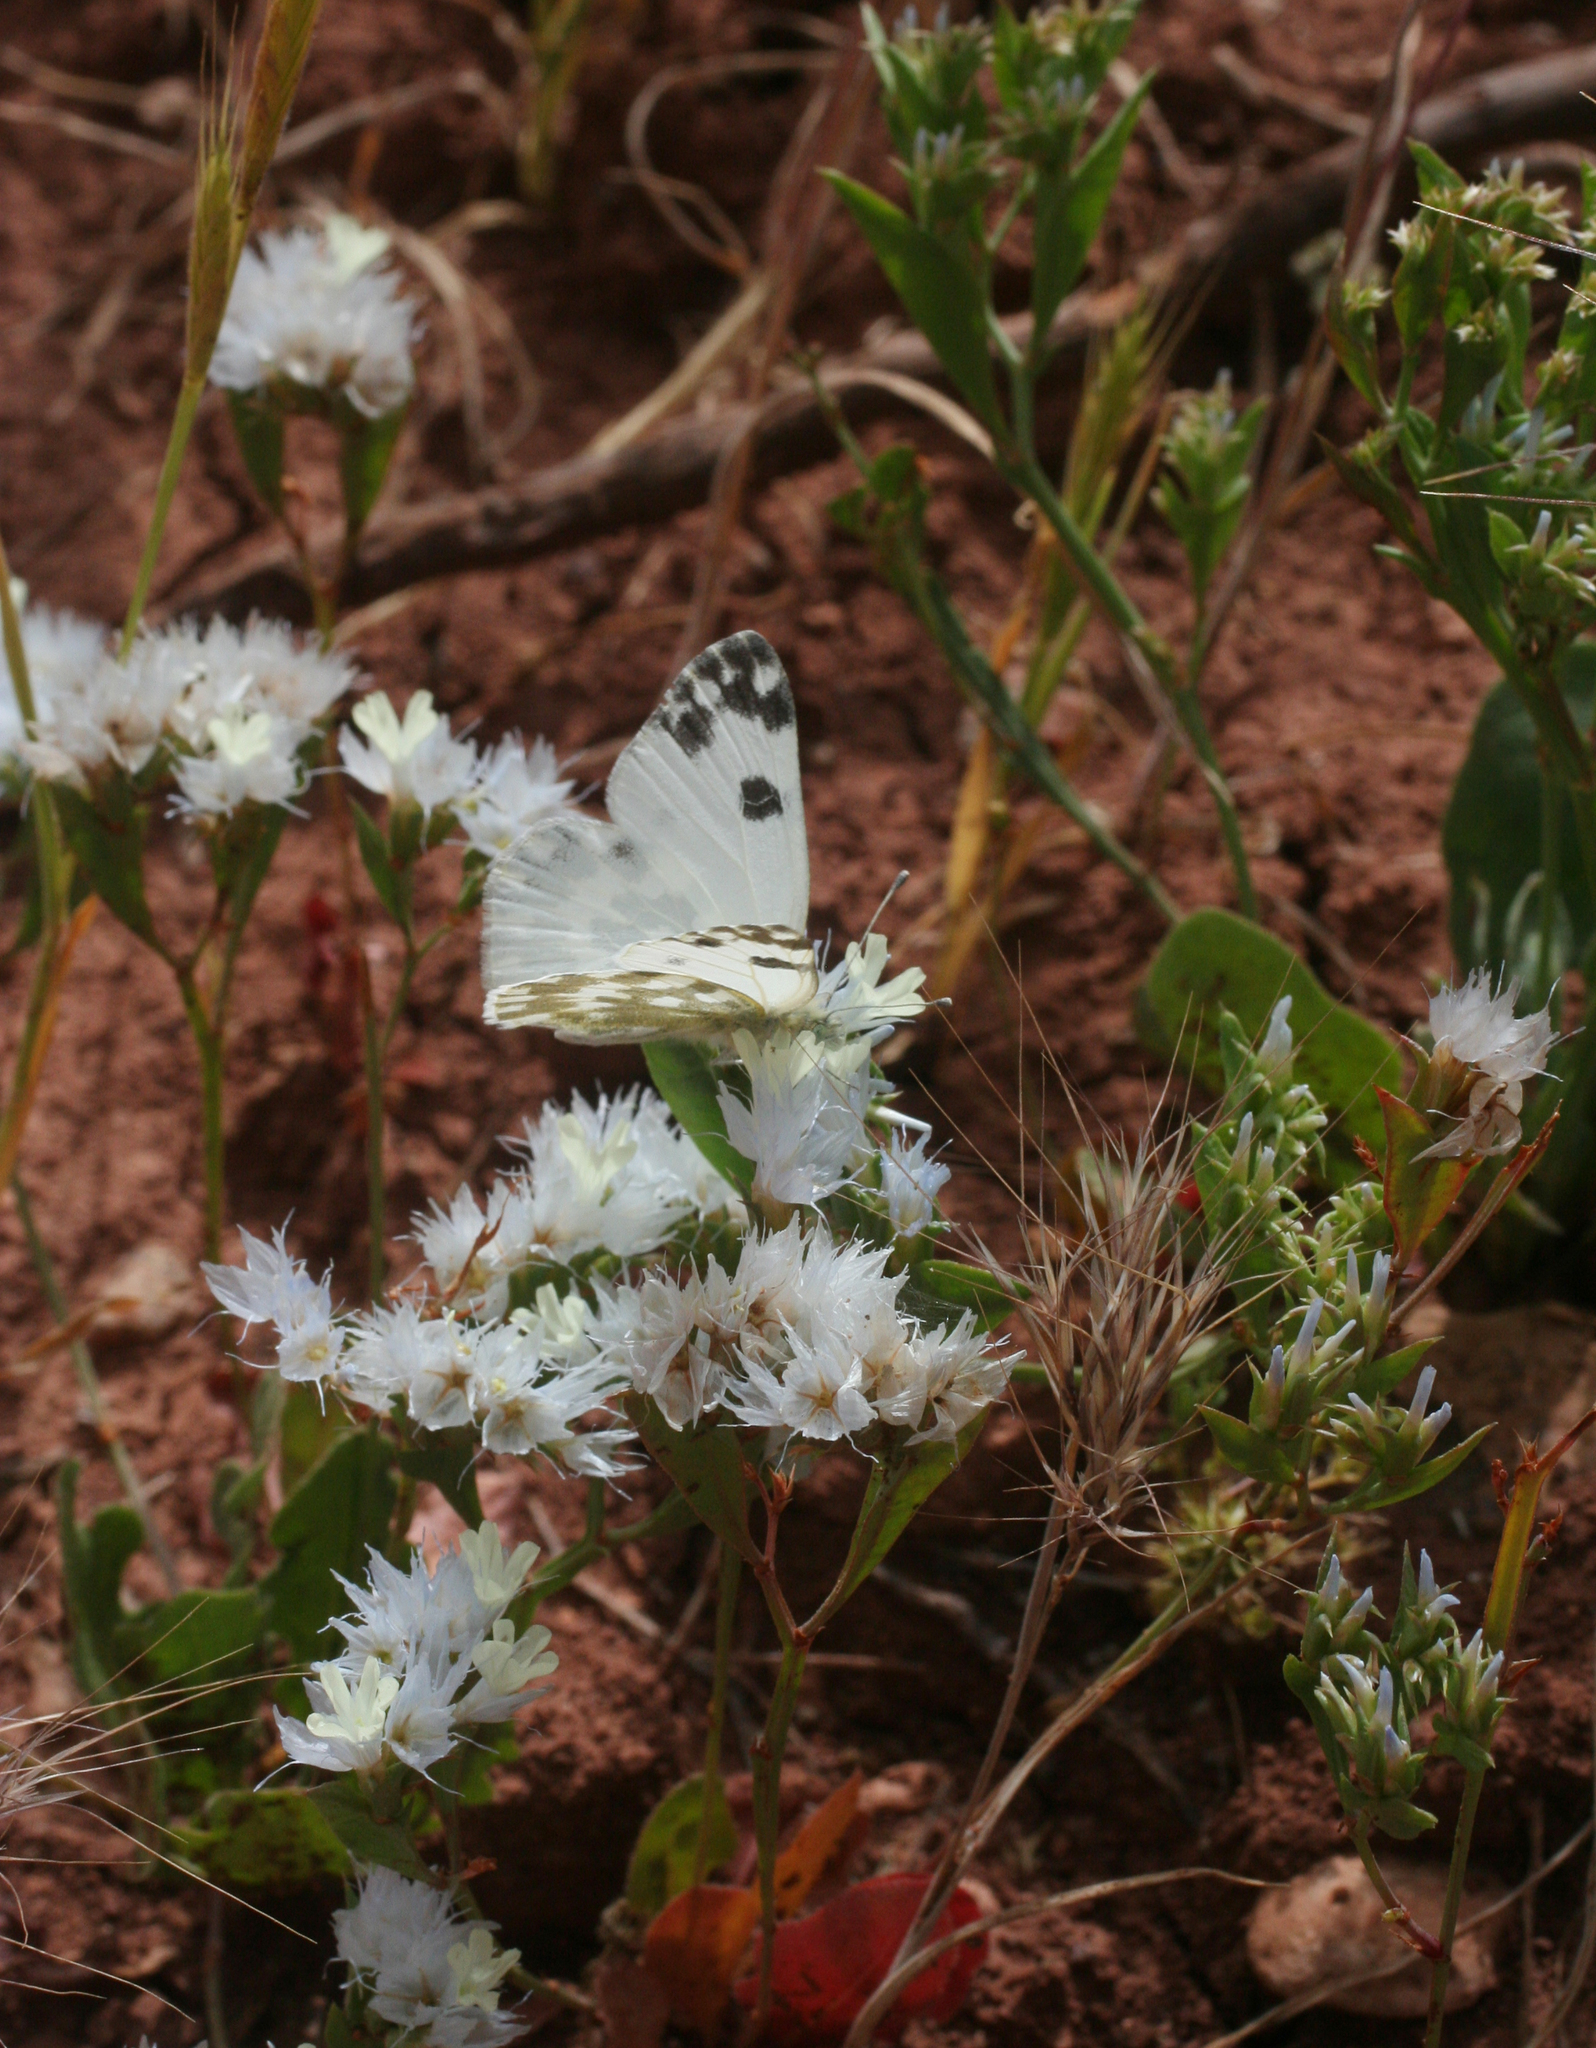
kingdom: Animalia
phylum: Arthropoda
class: Insecta
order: Lepidoptera
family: Pieridae
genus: Pontia
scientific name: Pontia daplidice
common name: Bath white
